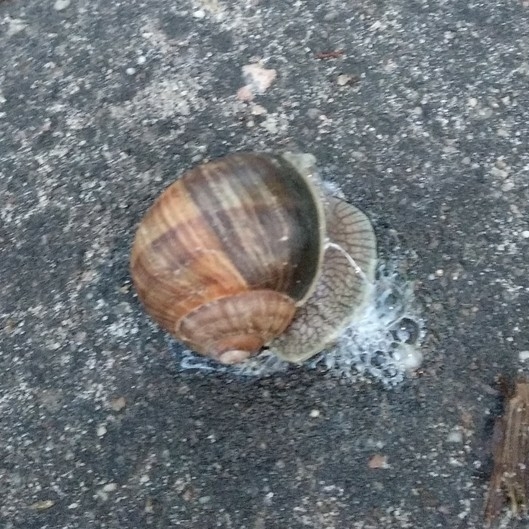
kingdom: Animalia
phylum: Mollusca
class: Gastropoda
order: Stylommatophora
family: Helicidae
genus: Helix
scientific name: Helix pomatia
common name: Roman snail
